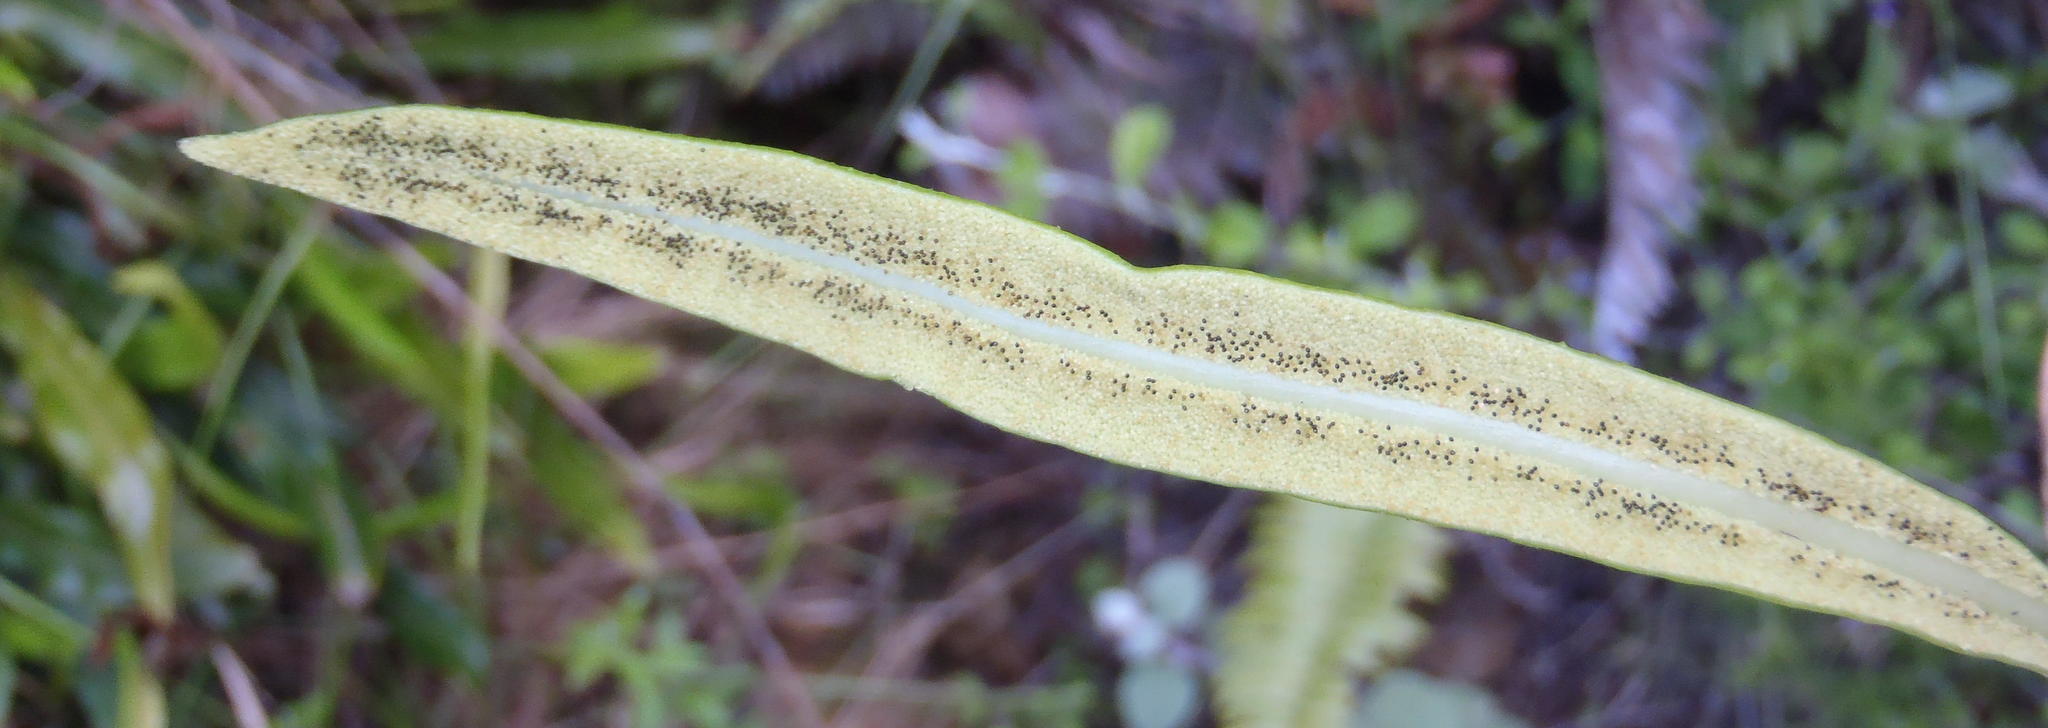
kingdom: Plantae
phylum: Tracheophyta
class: Polypodiopsida
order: Polypodiales
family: Dryopteridaceae
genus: Elaphoglossum
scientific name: Elaphoglossum acrostichoides
